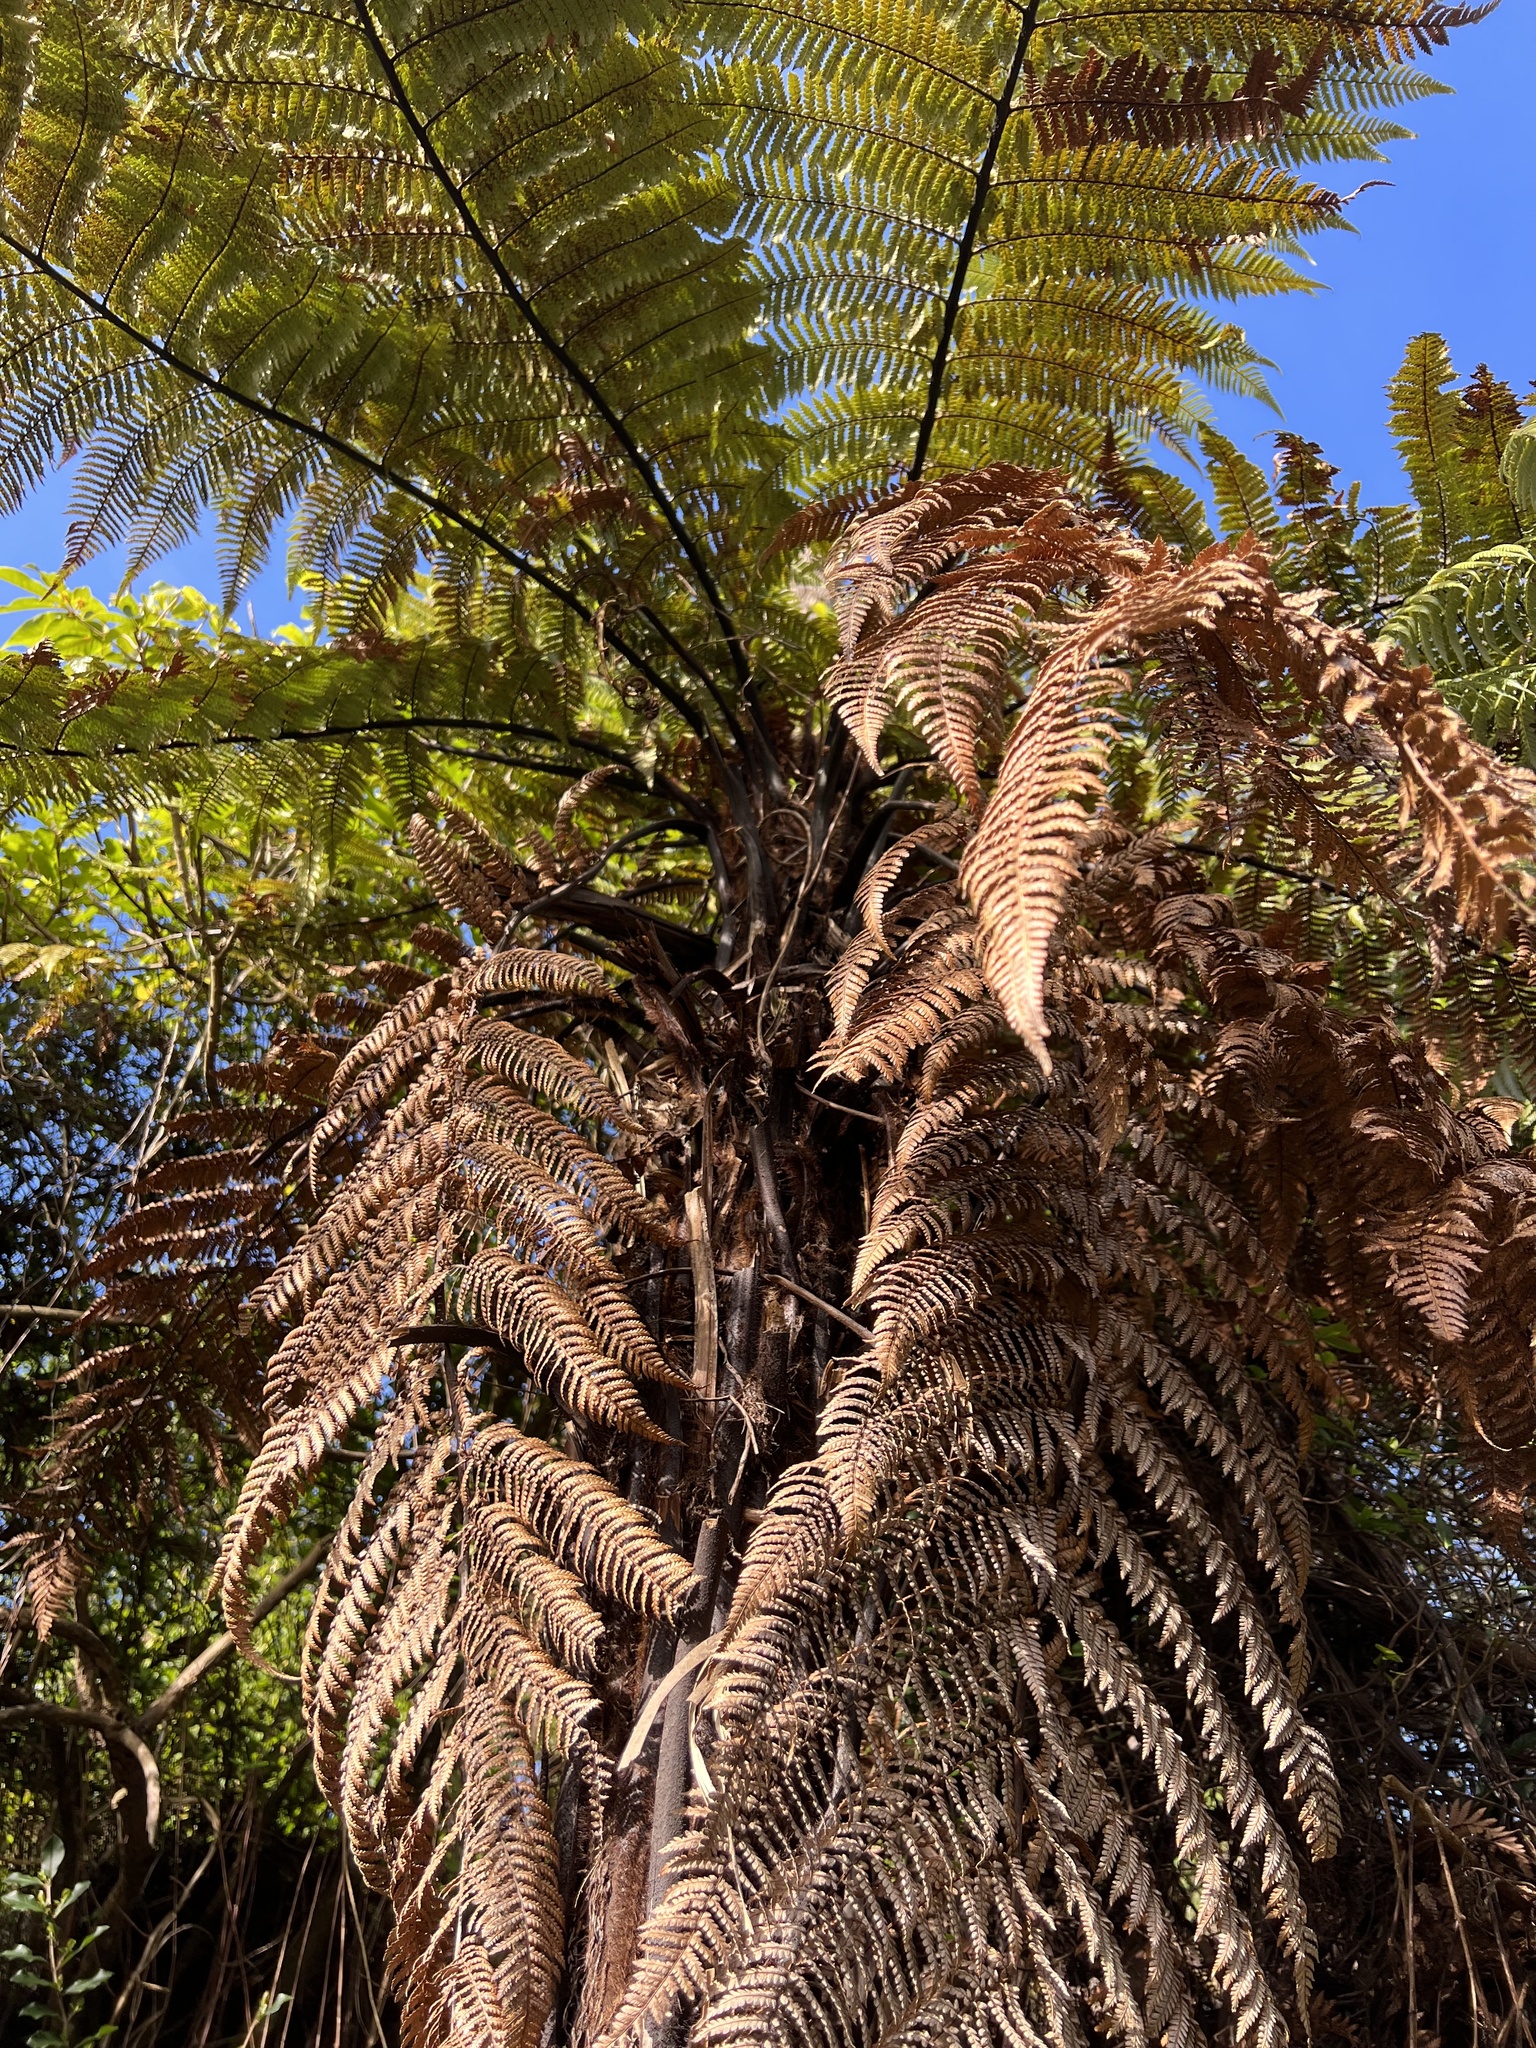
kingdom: Plantae
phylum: Tracheophyta
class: Polypodiopsida
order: Cyatheales
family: Dicksoniaceae
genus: Dicksonia
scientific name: Dicksonia squarrosa
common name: Hard treefern
